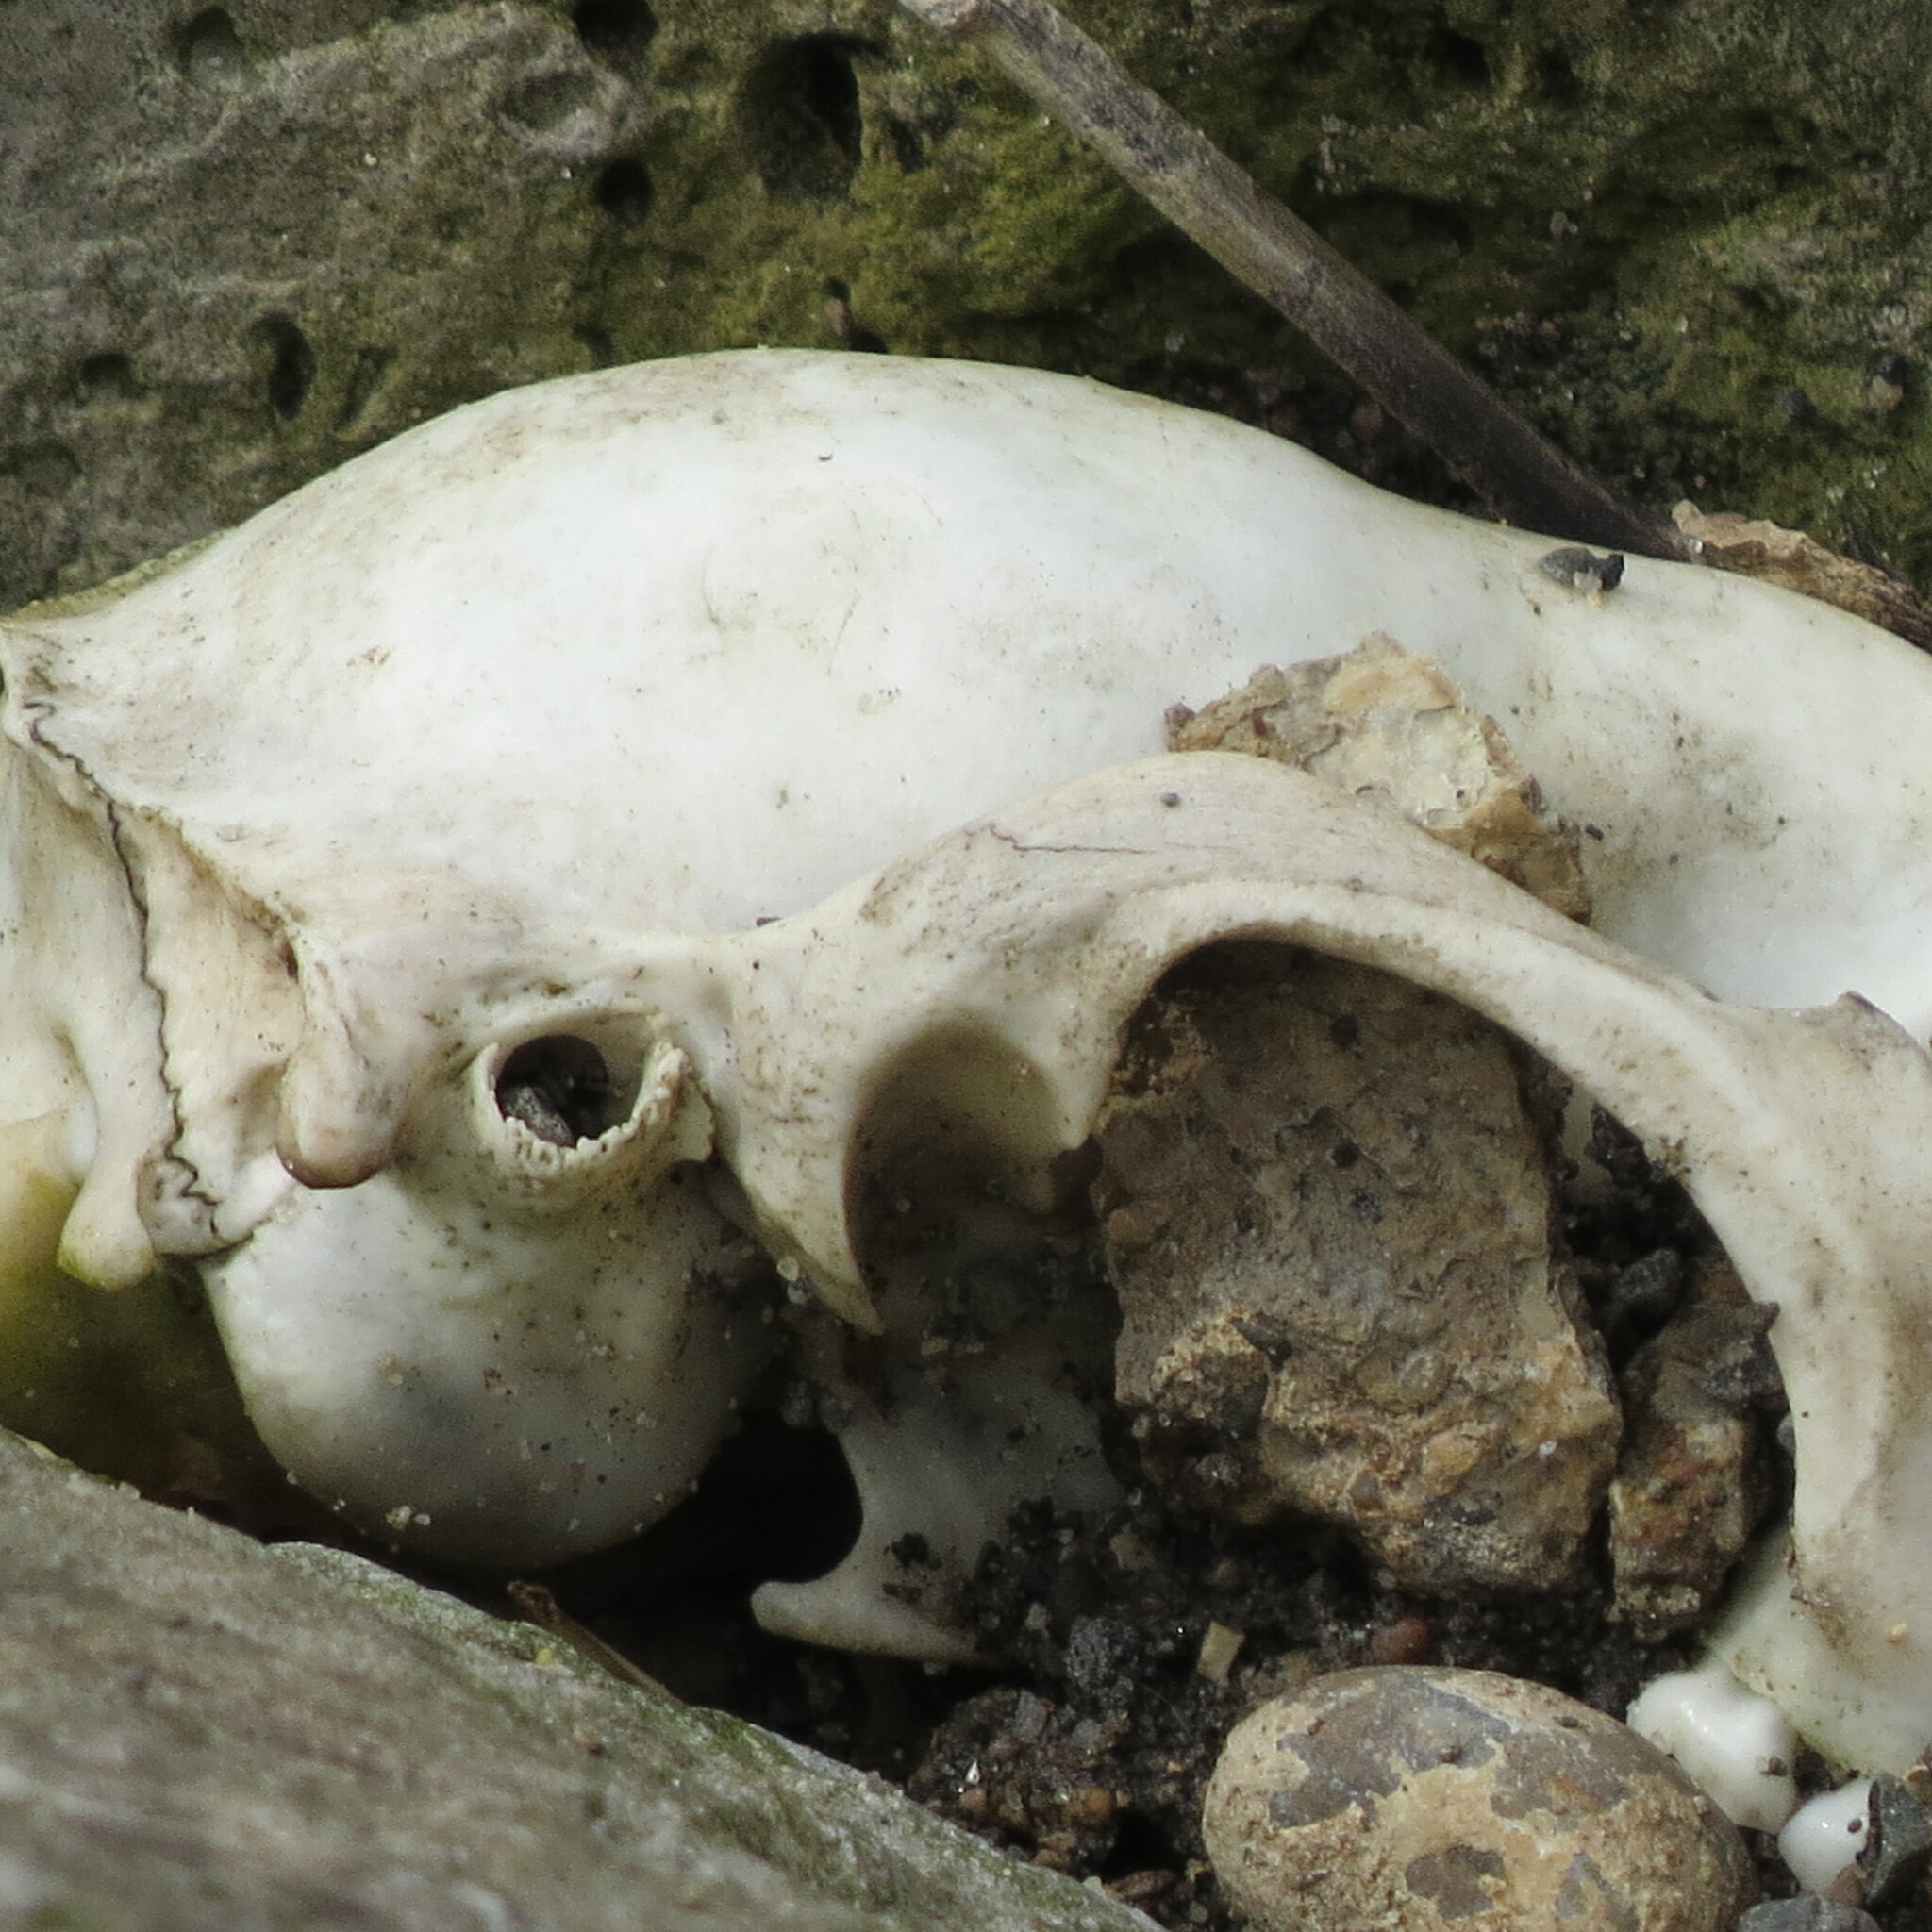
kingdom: Animalia
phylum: Chordata
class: Mammalia
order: Carnivora
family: Procyonidae
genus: Procyon
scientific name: Procyon lotor
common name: Raccoon
